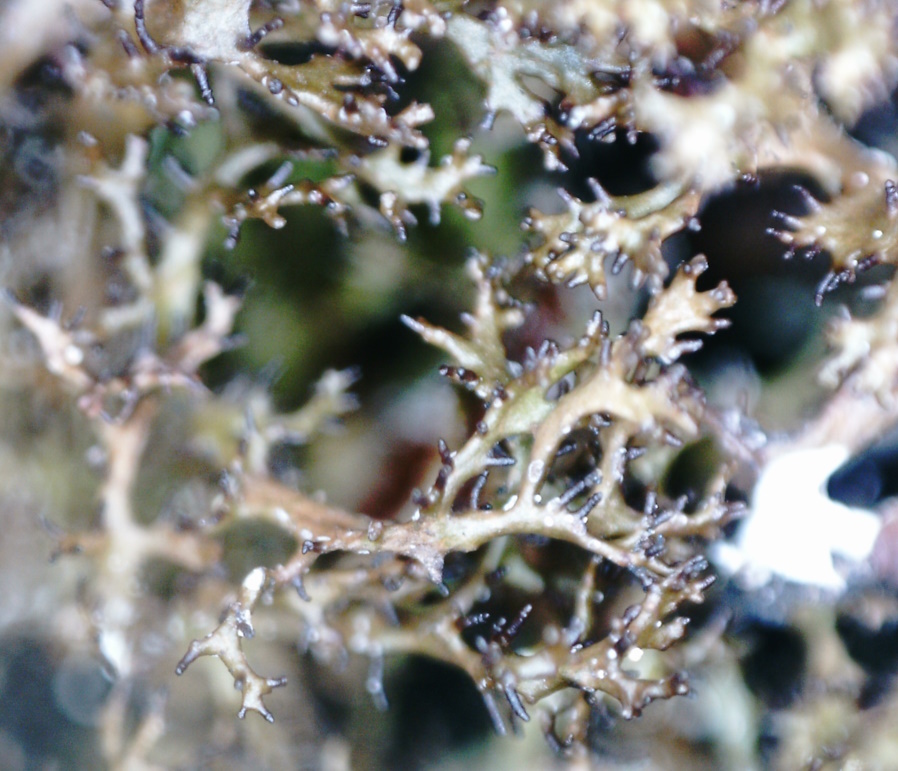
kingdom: Fungi
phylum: Ascomycota
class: Lecanoromycetes
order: Lecanorales
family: Parmeliaceae
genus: Cetraria
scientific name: Cetraria odontella
